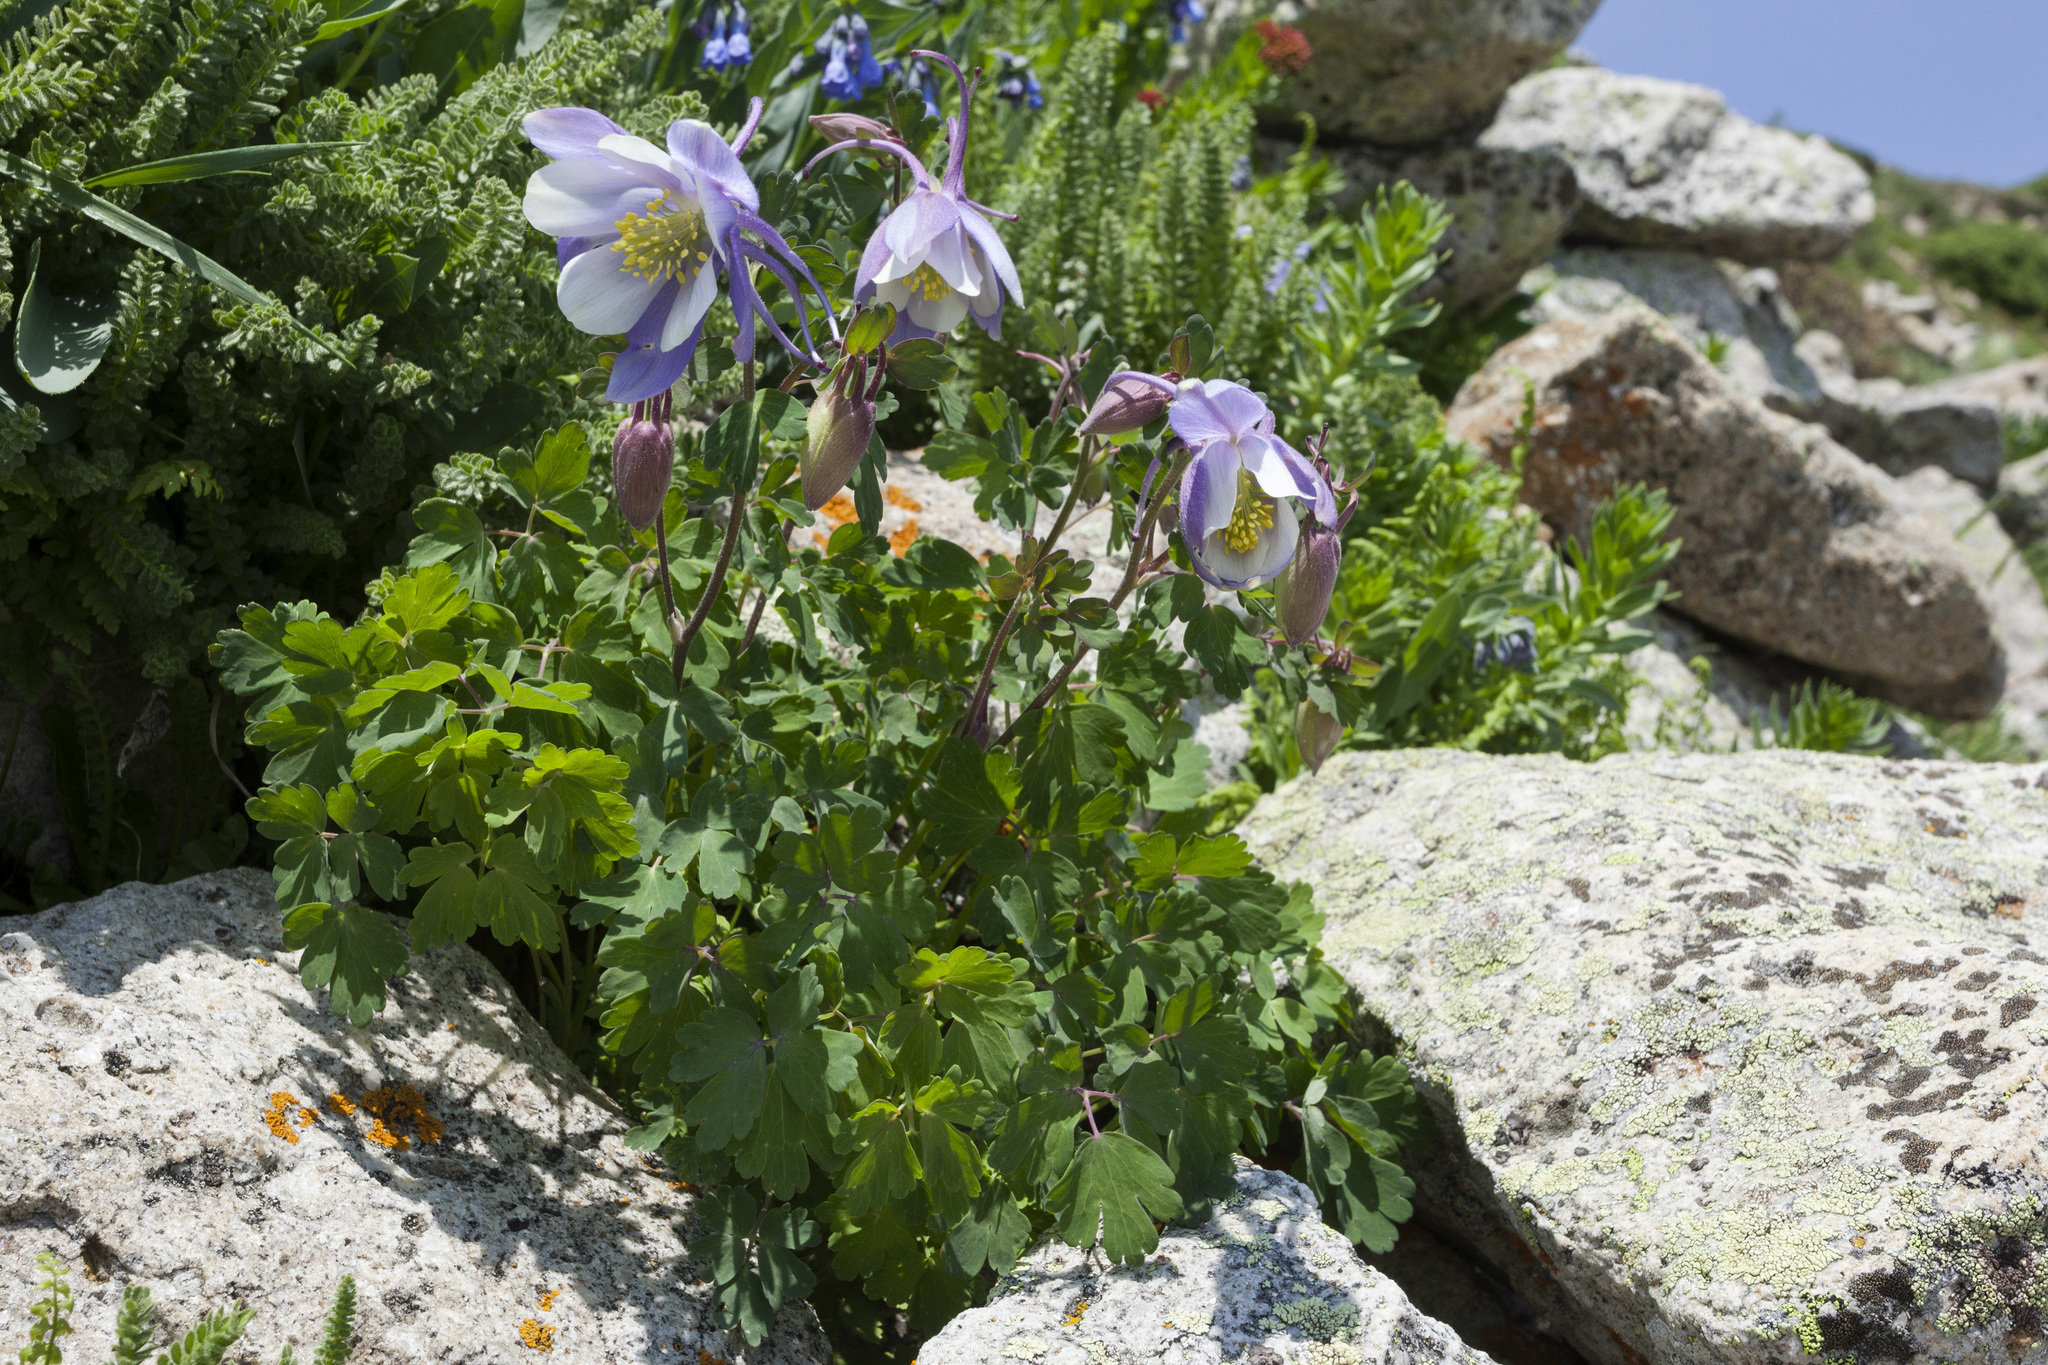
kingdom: Plantae
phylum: Tracheophyta
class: Magnoliopsida
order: Ranunculales
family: Ranunculaceae
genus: Aquilegia
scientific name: Aquilegia coerulea
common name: Rocky mountain columbine
